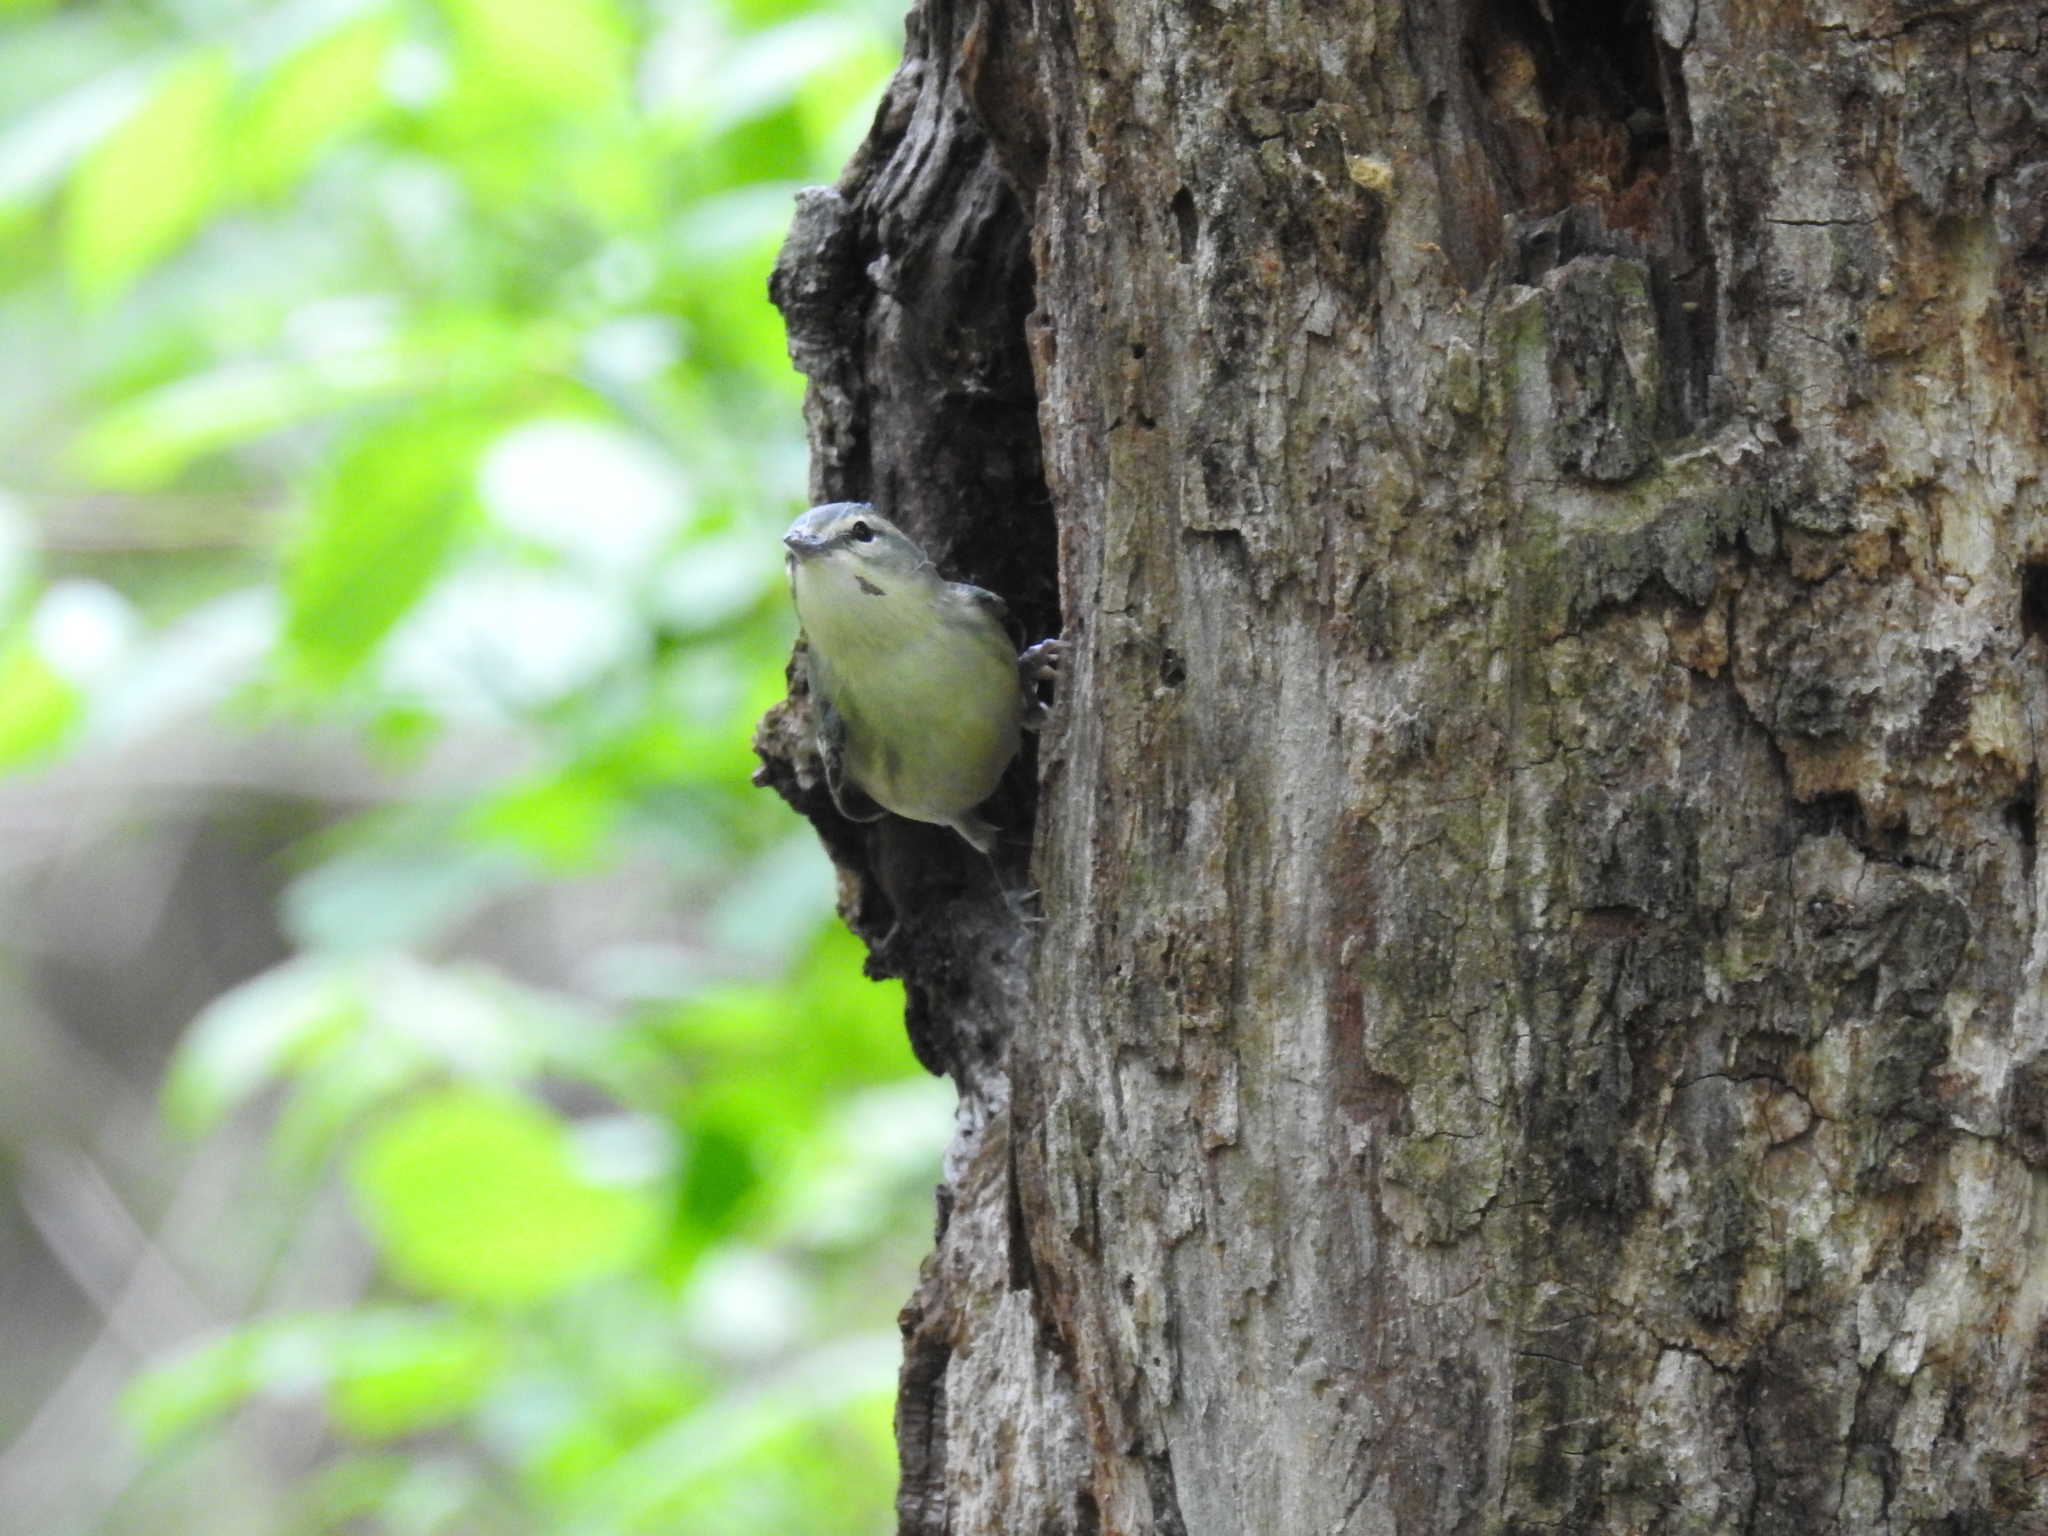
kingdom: Animalia
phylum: Chordata
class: Aves
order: Passeriformes
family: Parulidae
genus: Setophaga
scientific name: Setophaga cerulea
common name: Cerulean warbler
